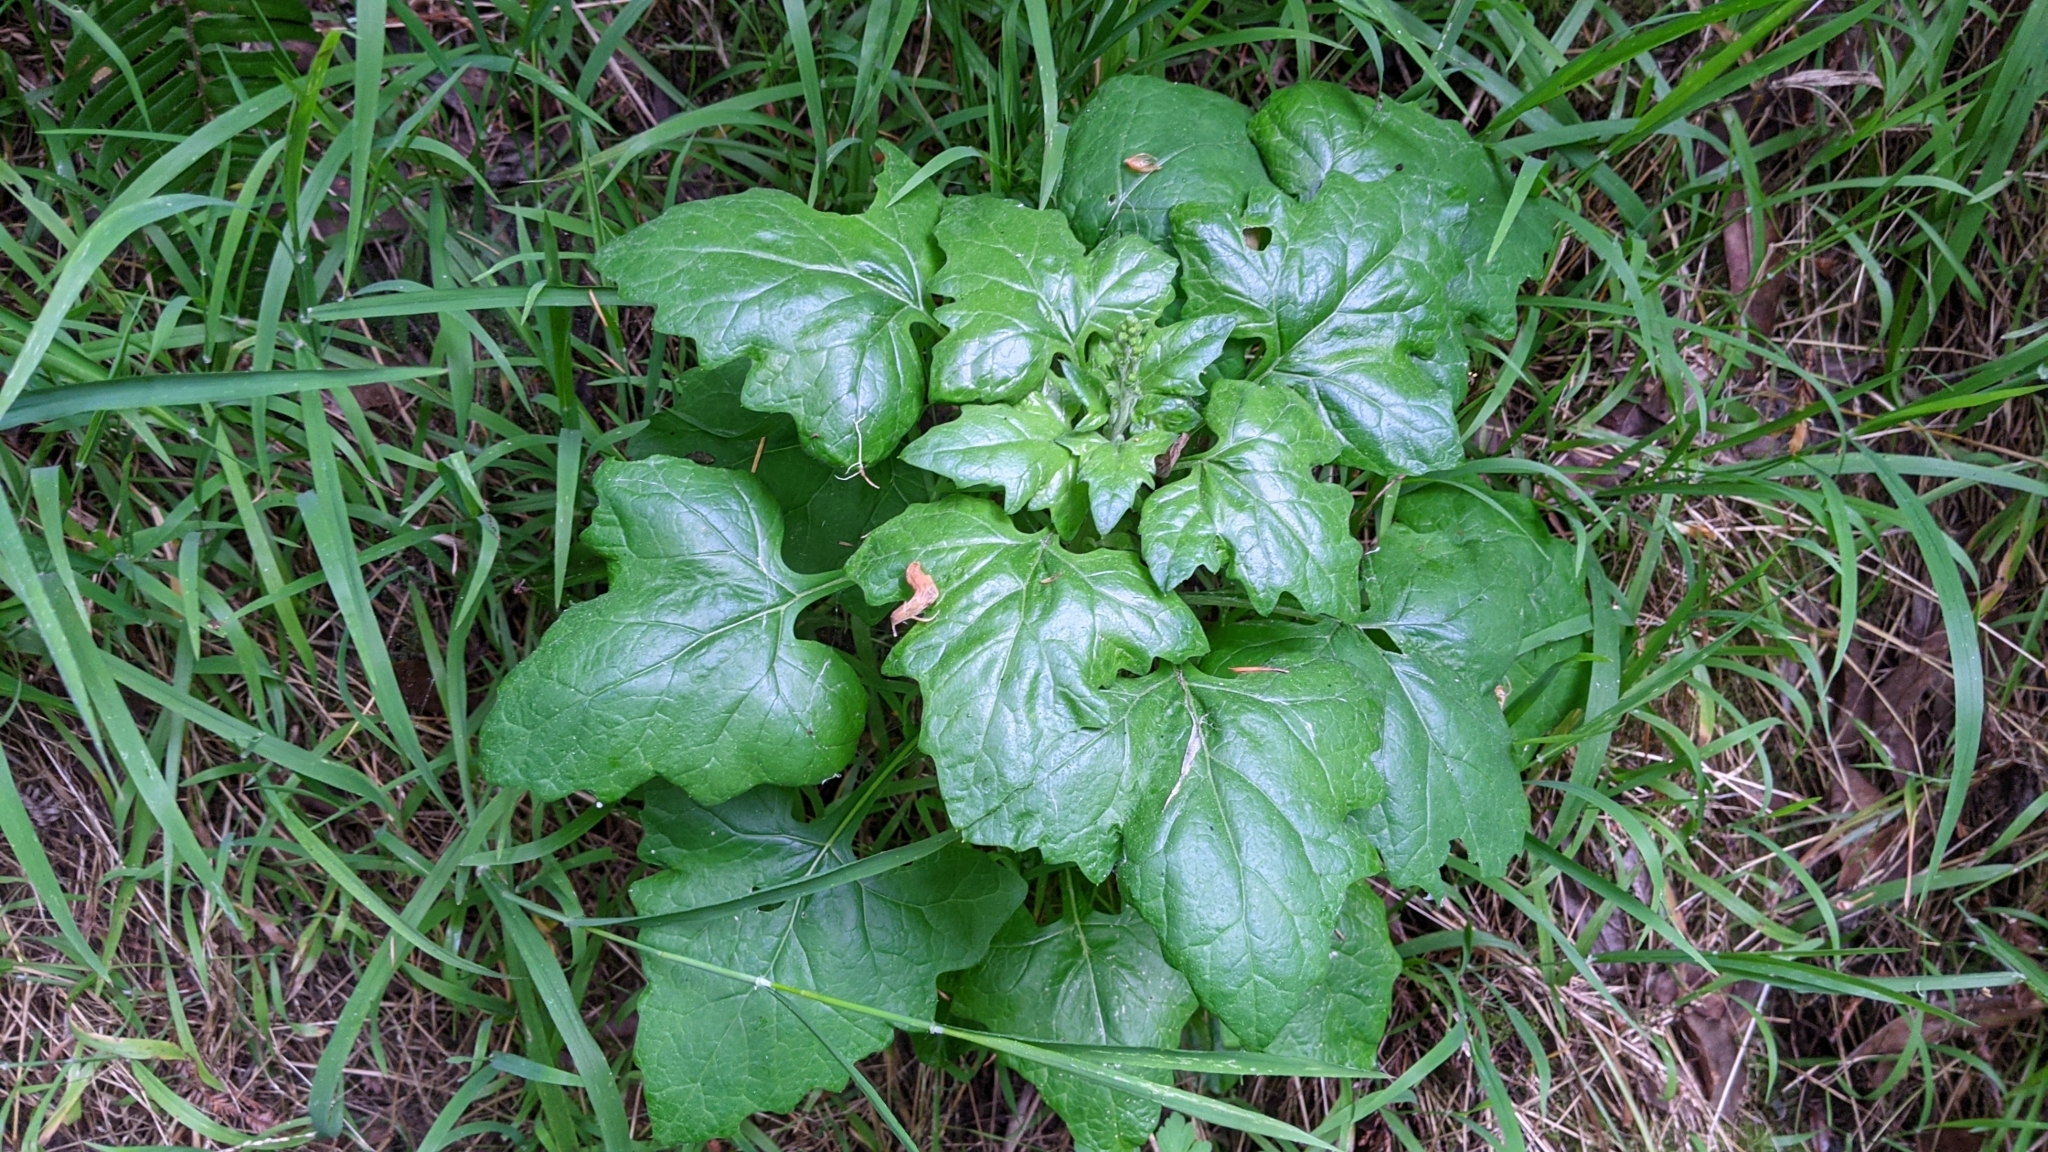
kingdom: Plantae
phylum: Tracheophyta
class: Magnoliopsida
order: Asterales
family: Asteraceae
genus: Adenocaulon
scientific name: Adenocaulon bicolor
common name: Trailplant
